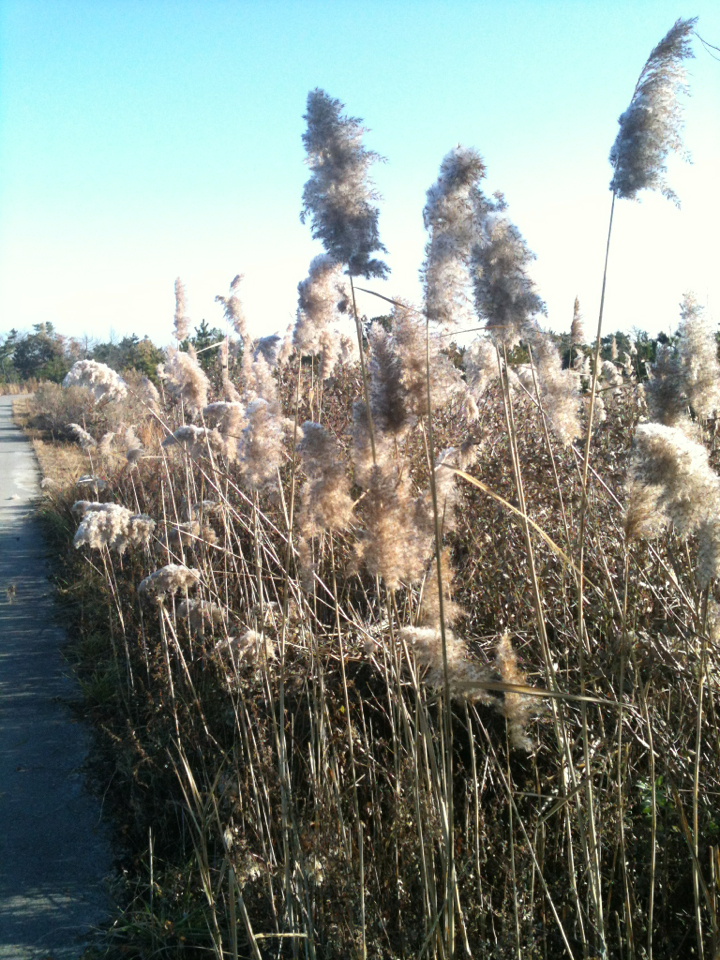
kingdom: Plantae
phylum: Tracheophyta
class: Liliopsida
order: Poales
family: Poaceae
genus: Phragmites
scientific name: Phragmites australis
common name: Common reed
